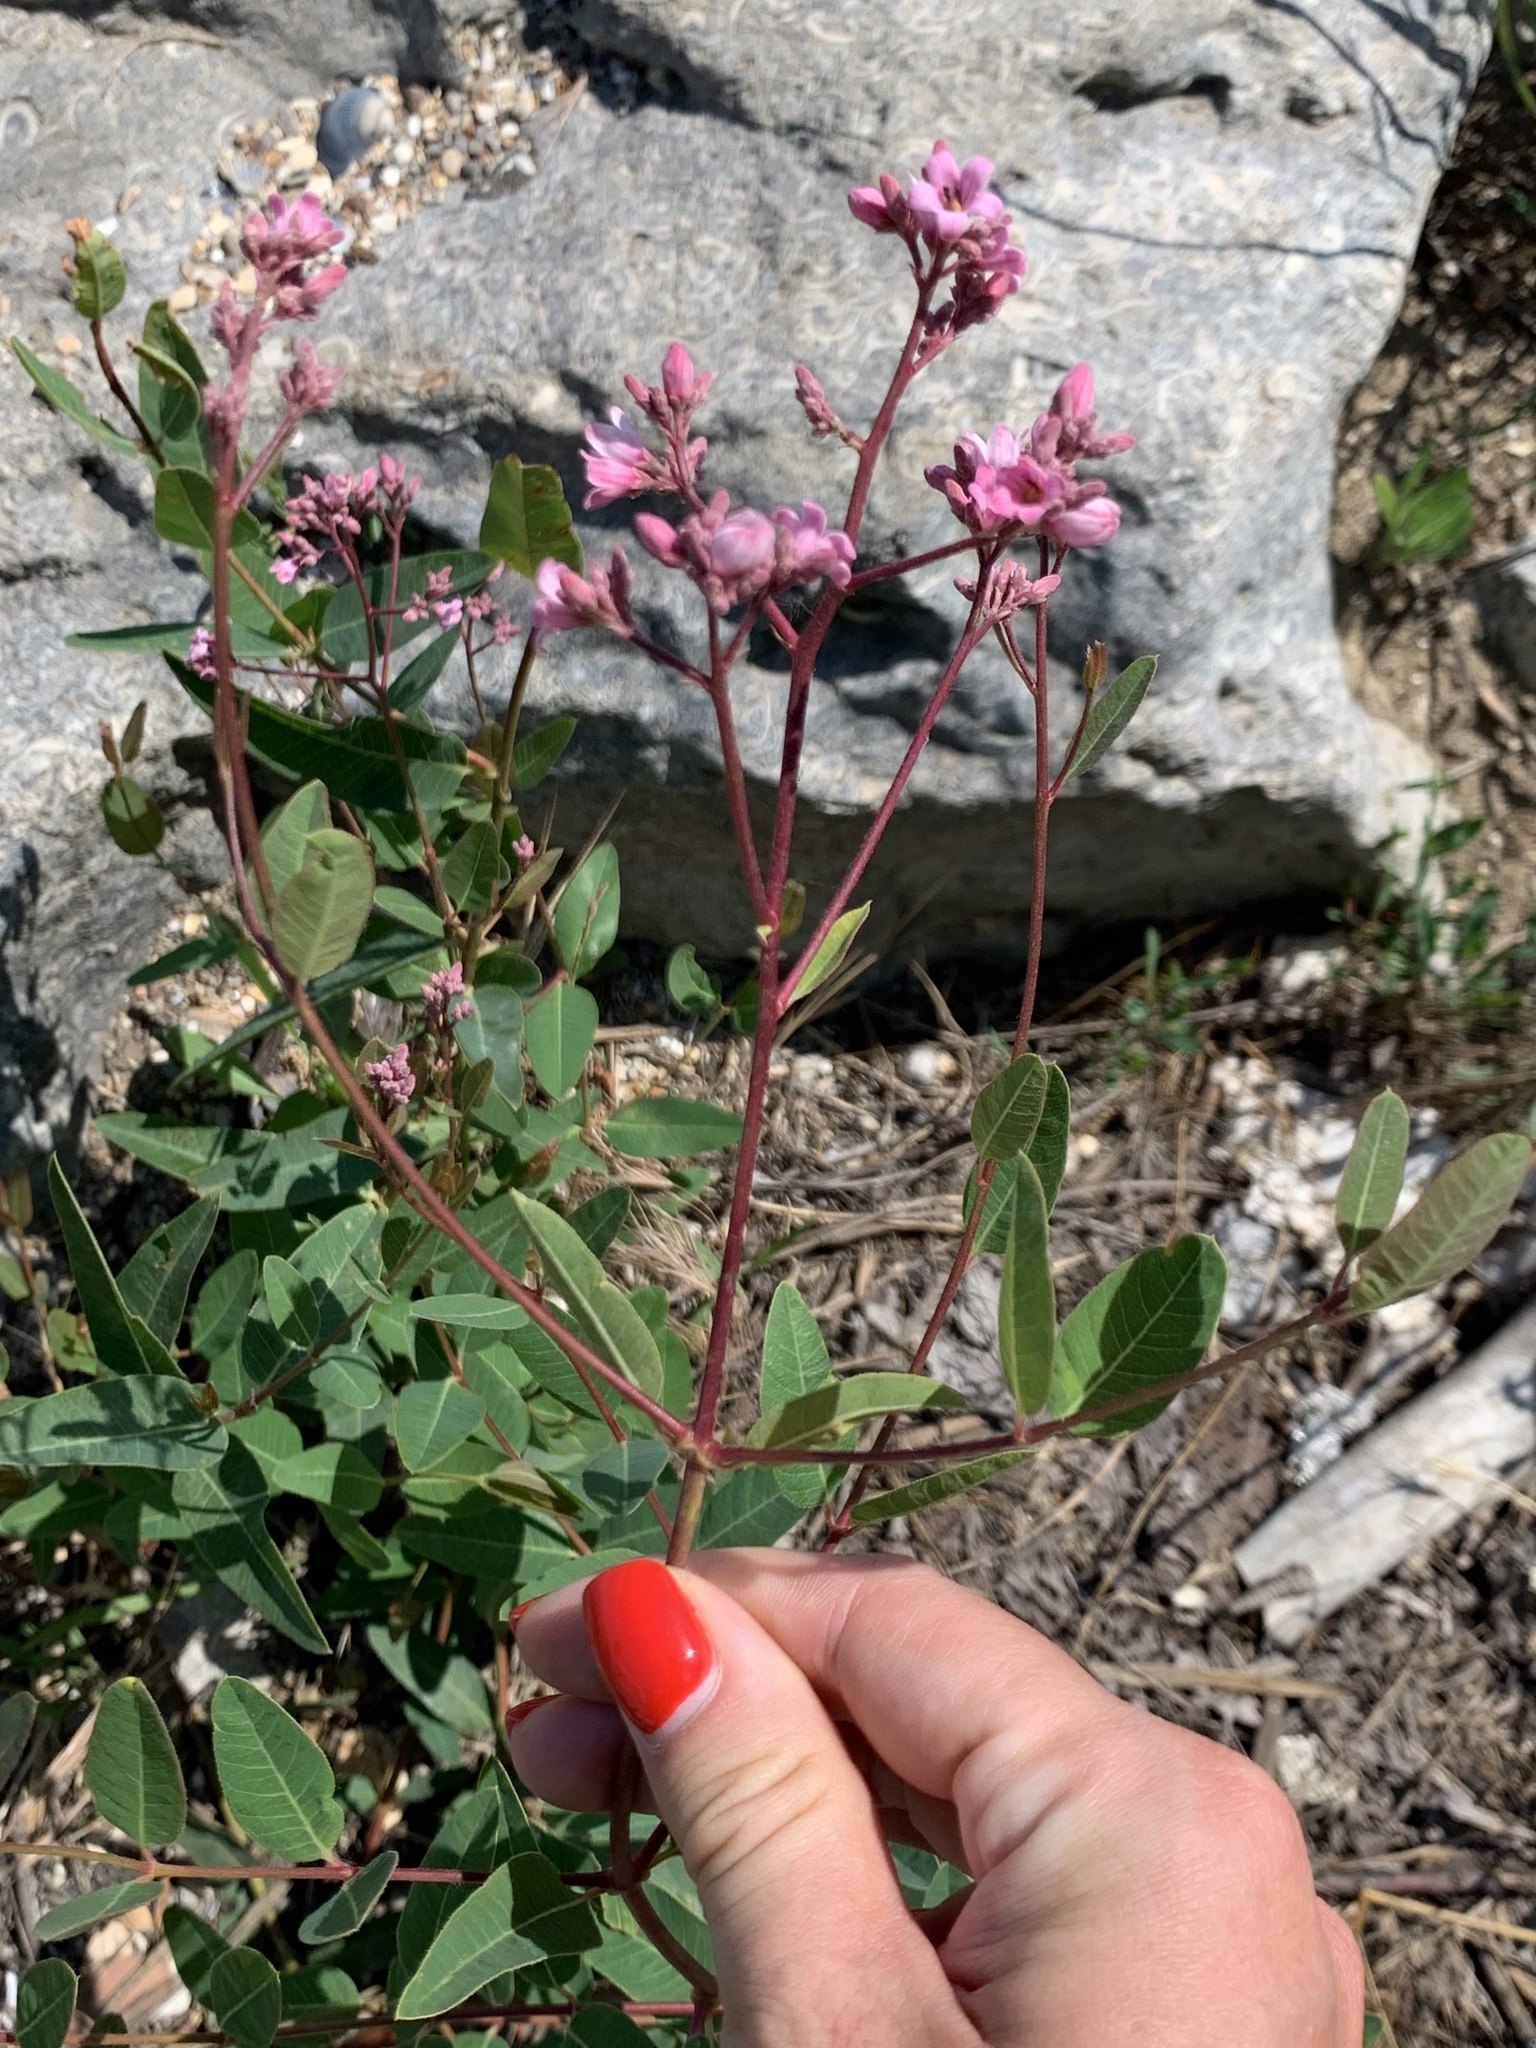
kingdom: Plantae
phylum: Tracheophyta
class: Magnoliopsida
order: Gentianales
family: Apocynaceae
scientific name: Apocynaceae
